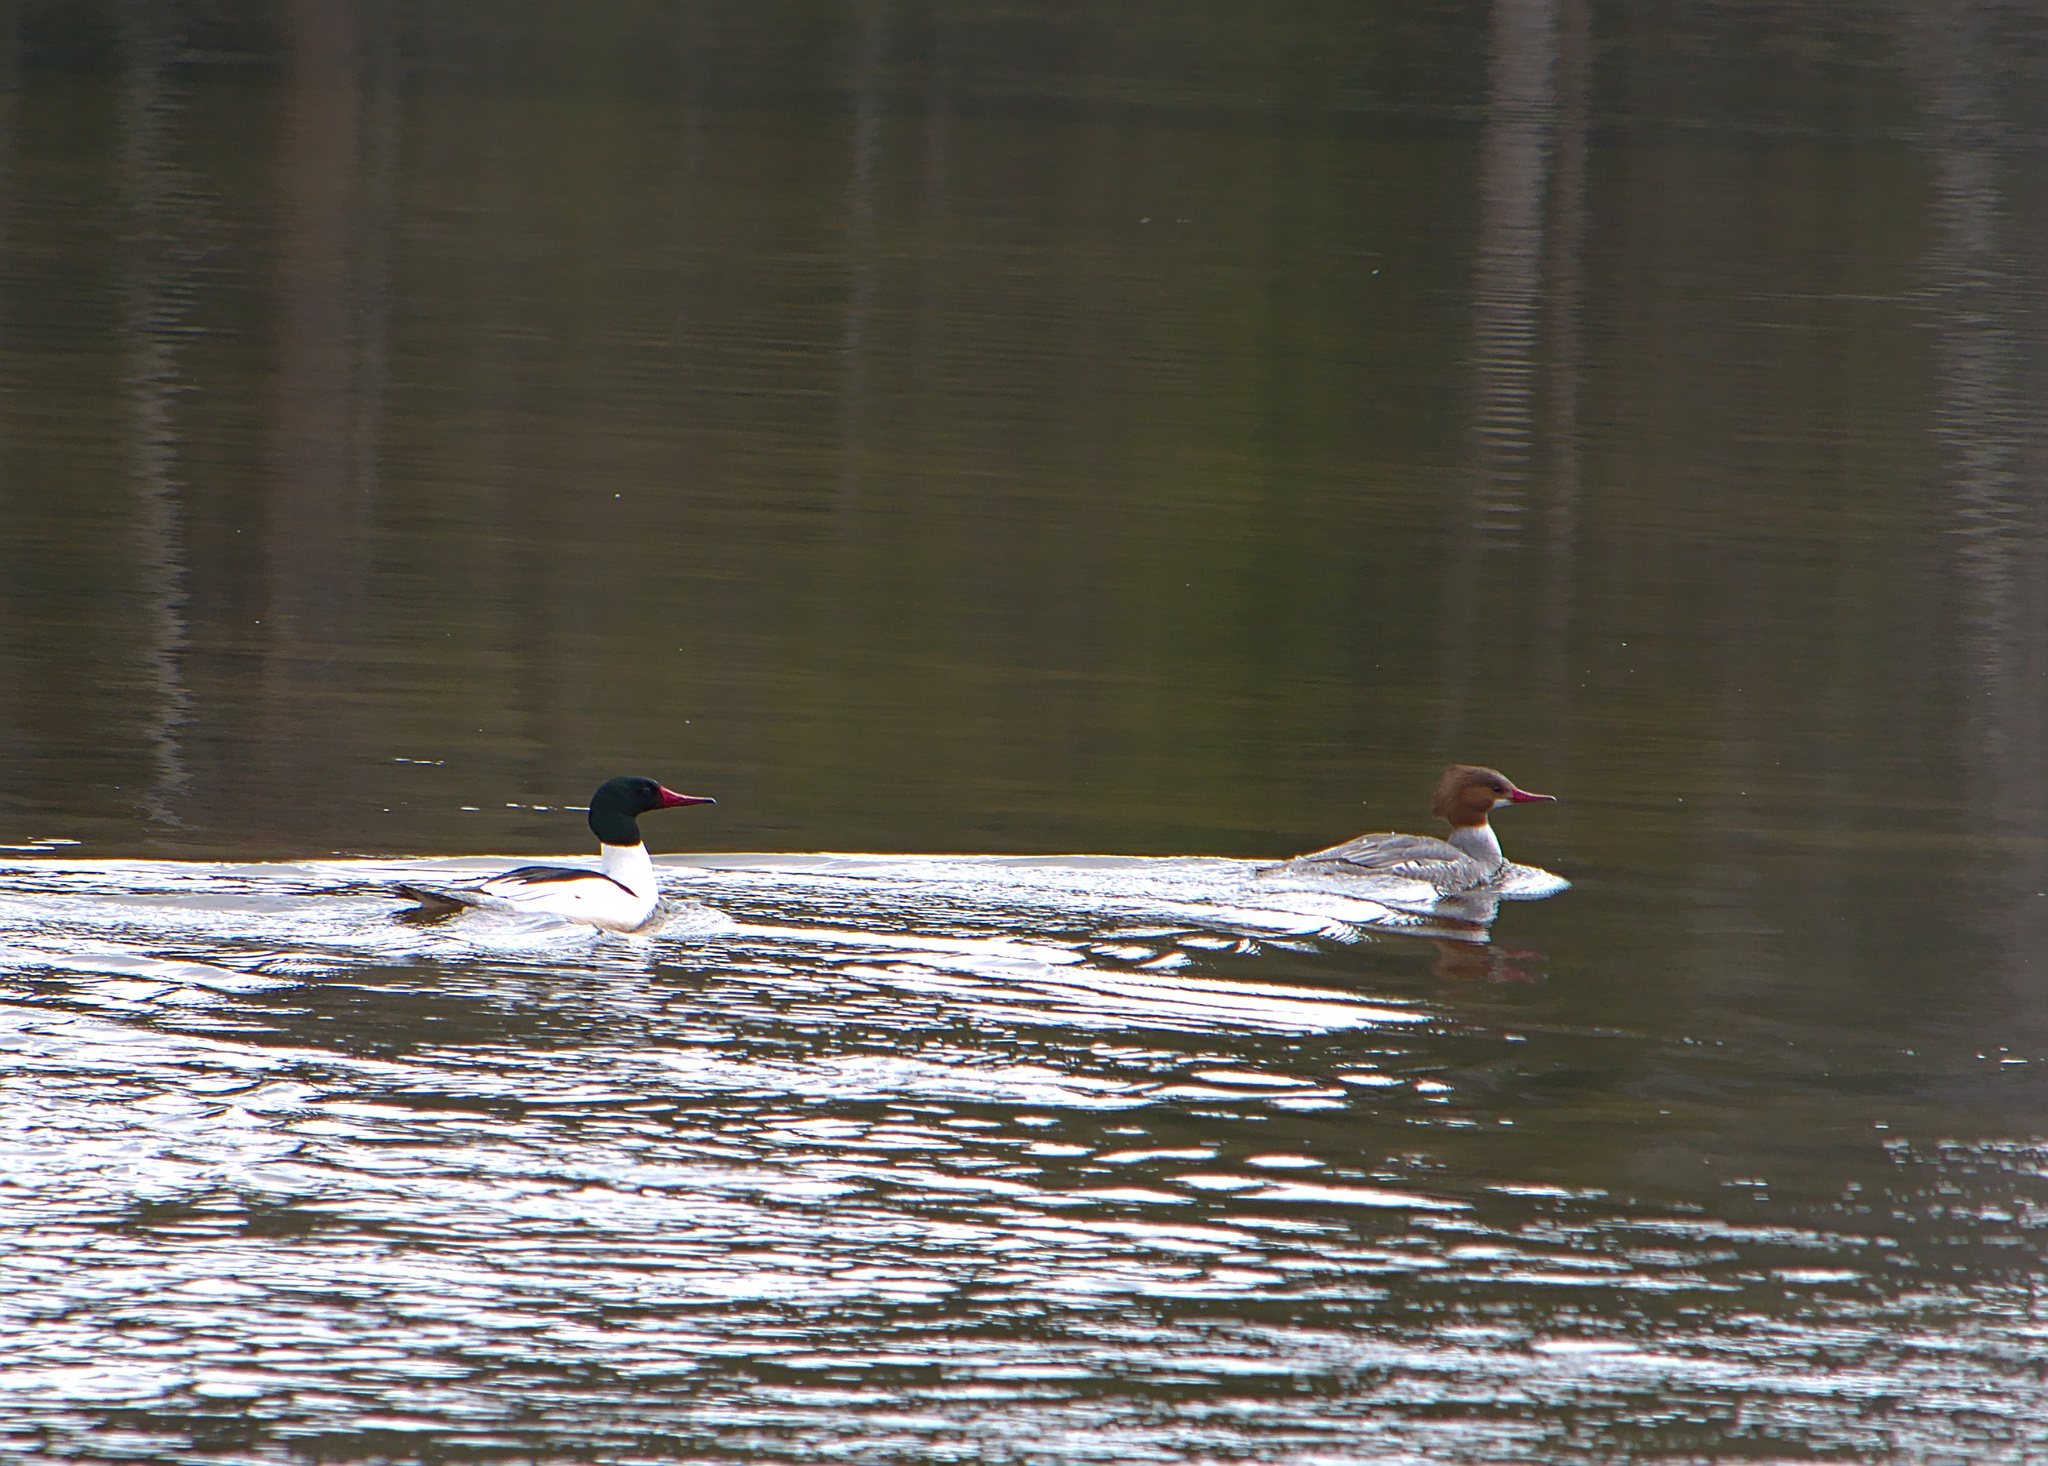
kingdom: Animalia
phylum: Chordata
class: Aves
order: Anseriformes
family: Anatidae
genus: Mergus
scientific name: Mergus merganser
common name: Common merganser
